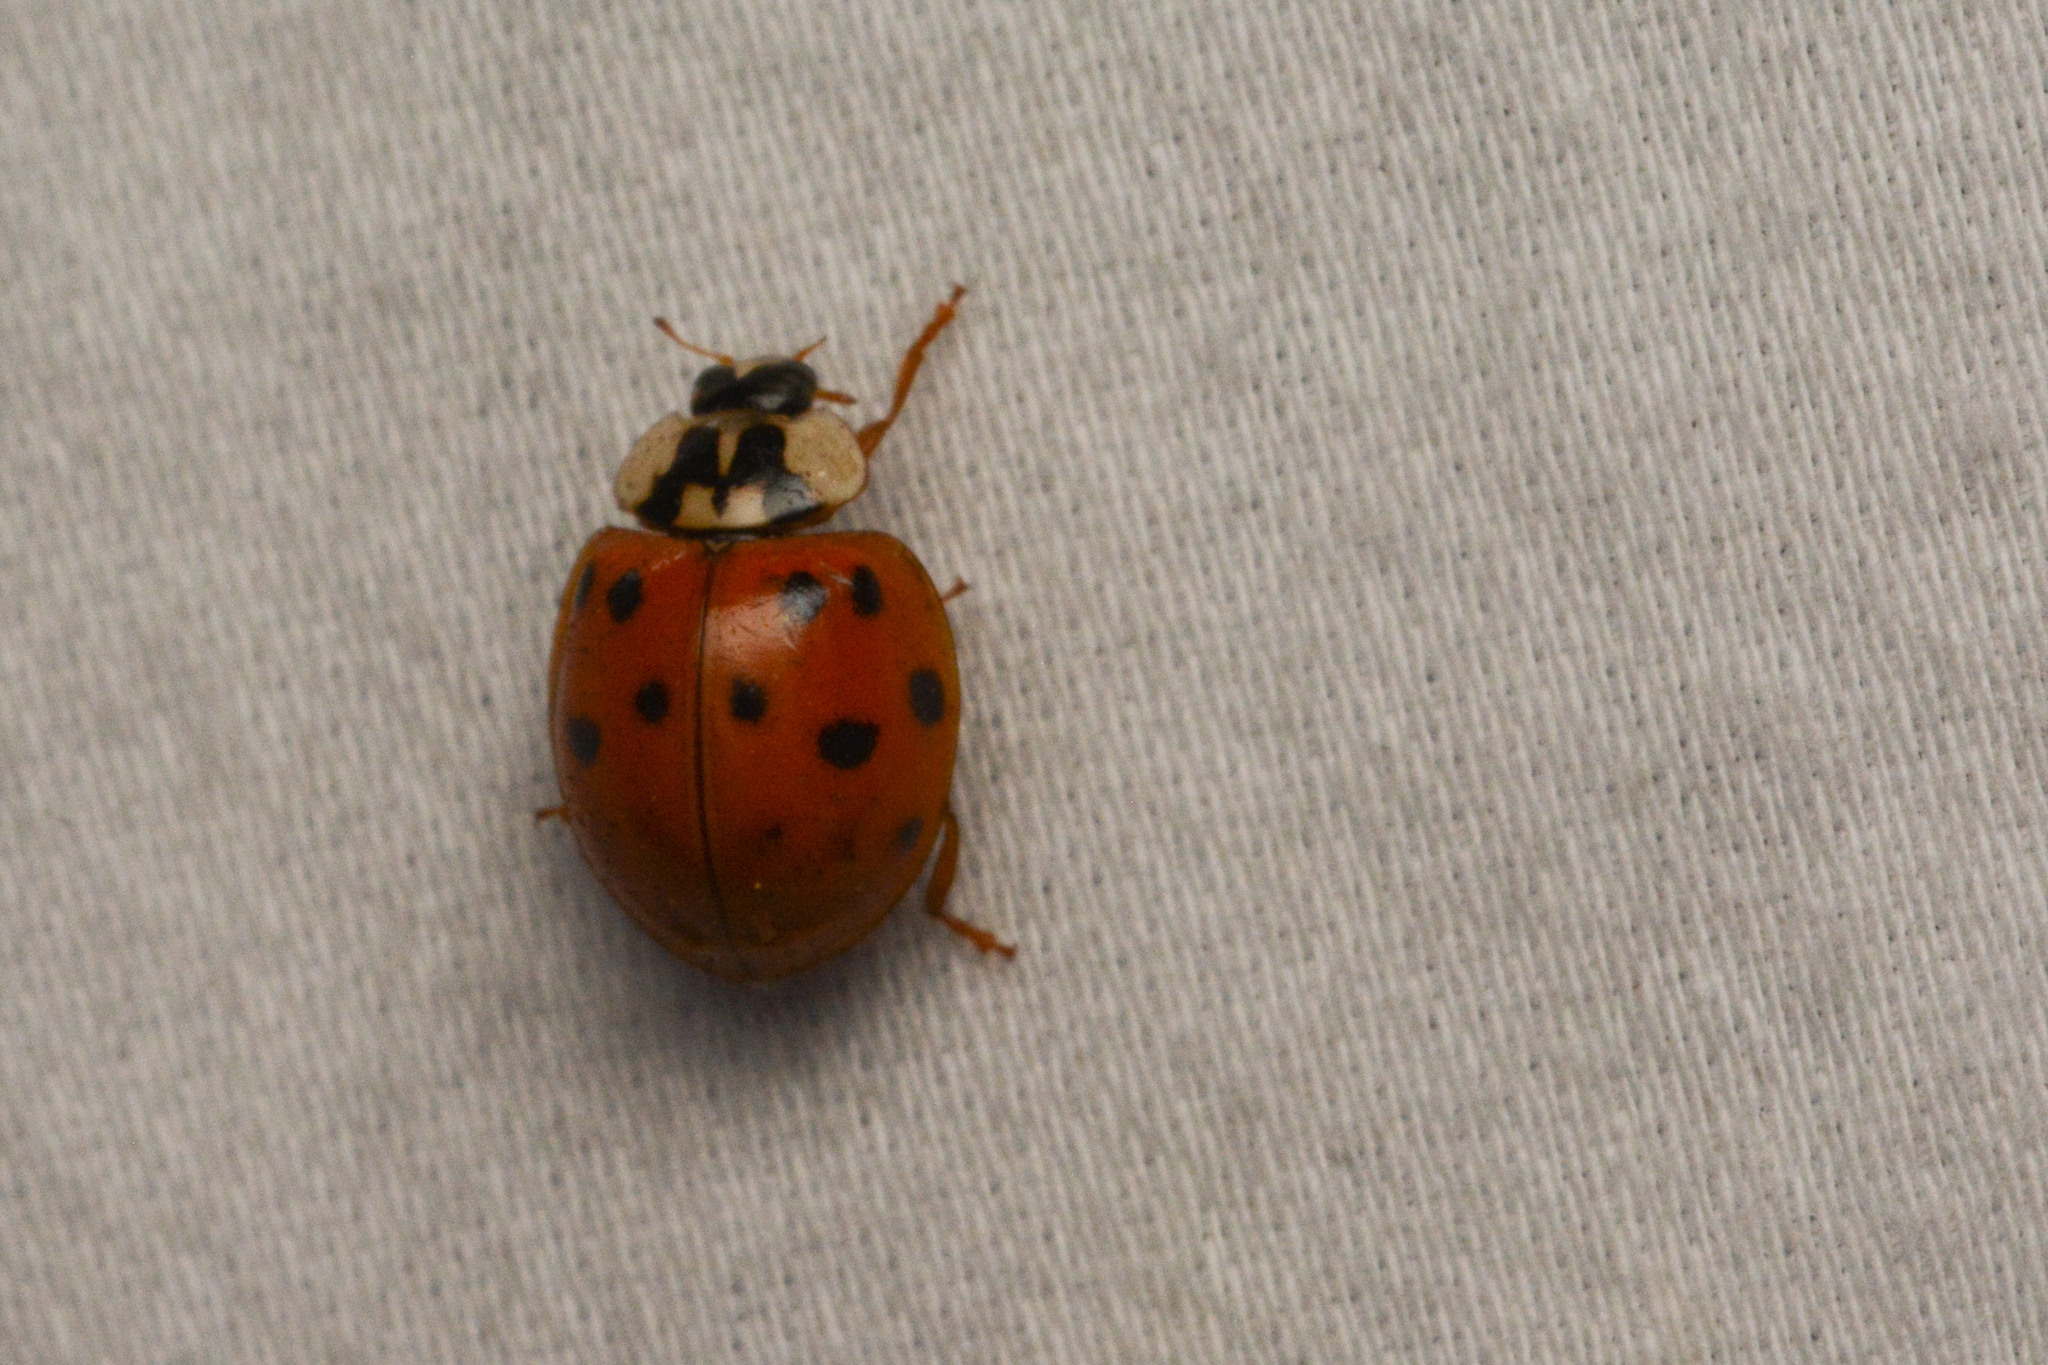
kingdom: Animalia
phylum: Arthropoda
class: Insecta
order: Coleoptera
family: Coccinellidae
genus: Harmonia
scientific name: Harmonia axyridis
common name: Harlequin ladybird
